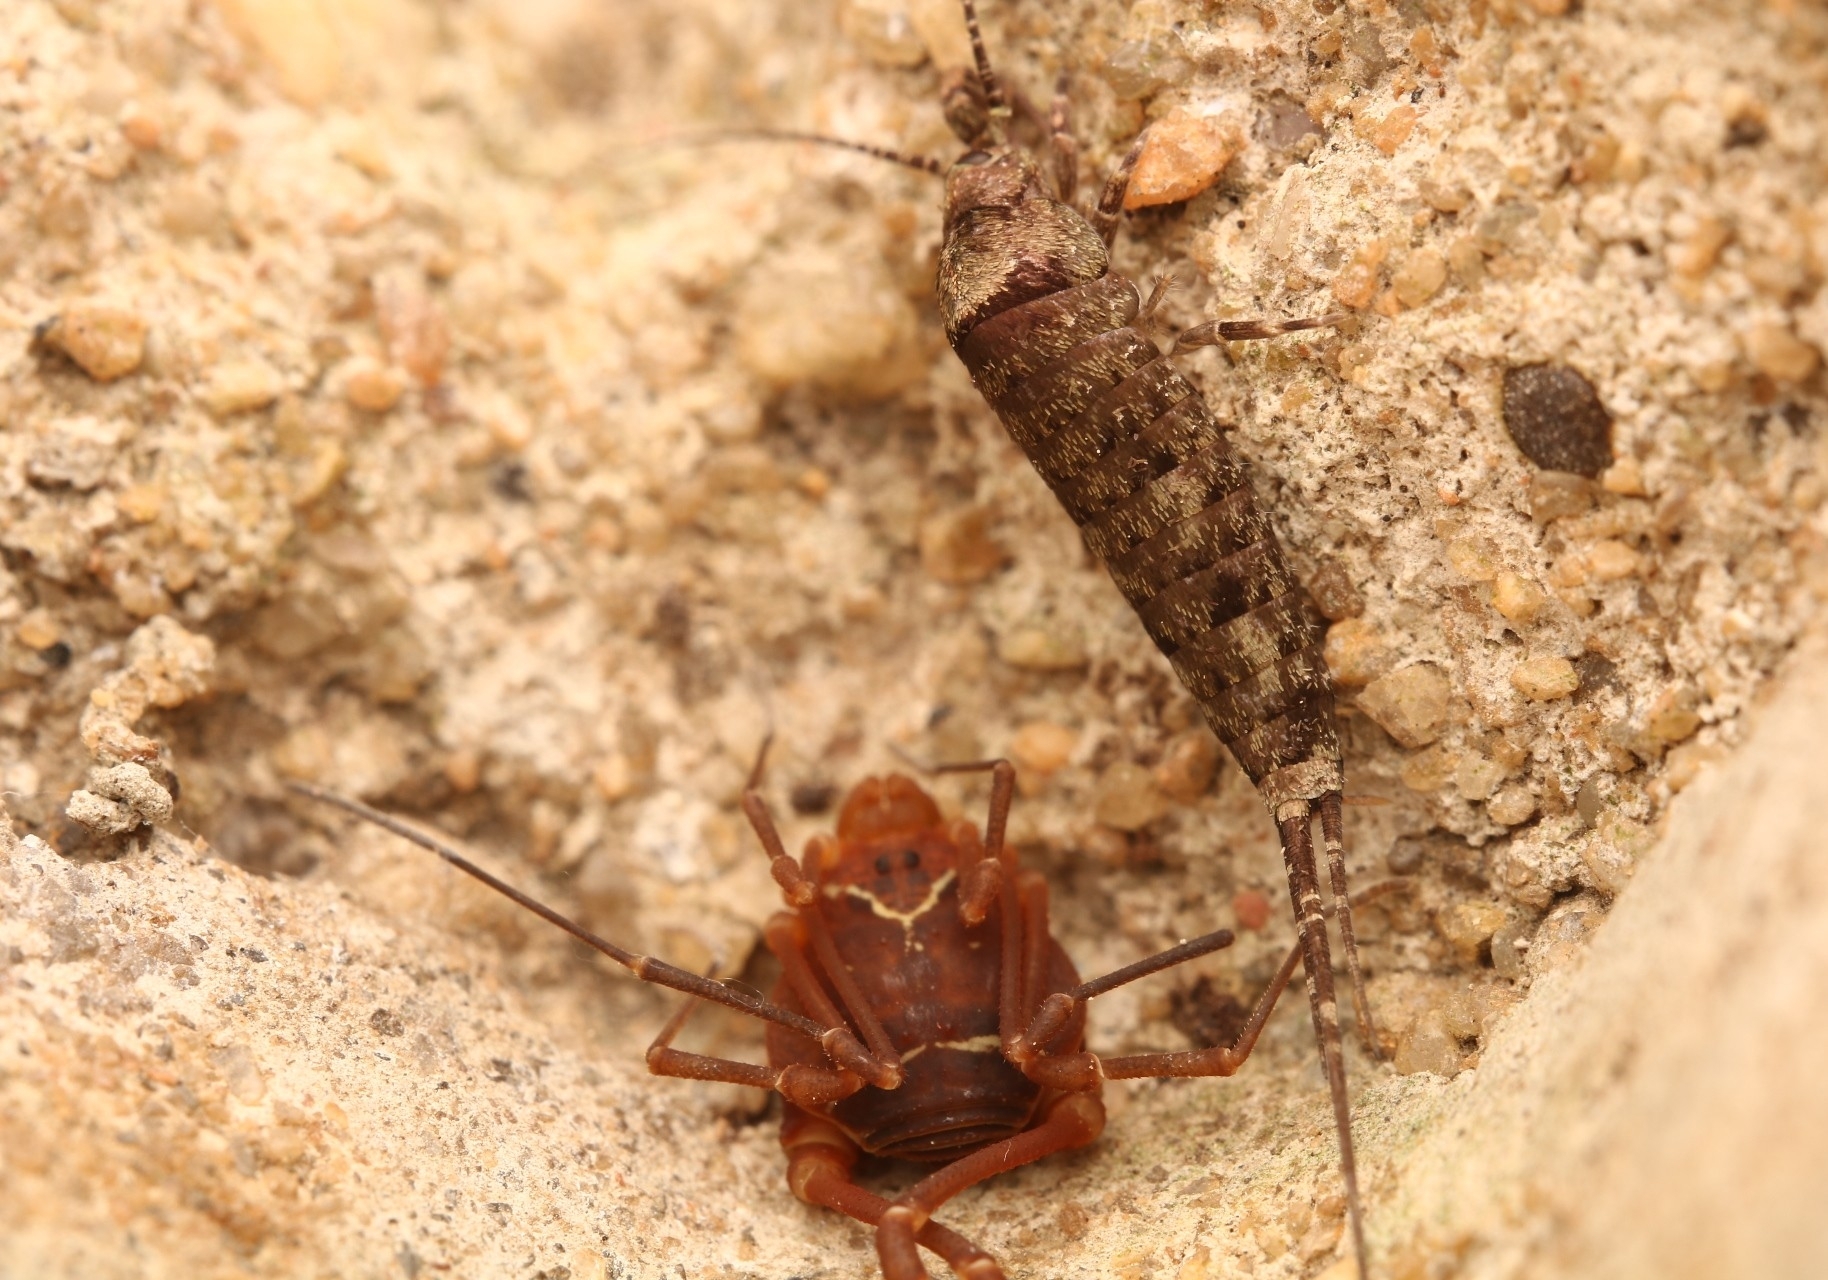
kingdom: Animalia
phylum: Arthropoda
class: Insecta
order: Archaeognatha
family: Machilidae
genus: Trigoniophthalmus
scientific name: Trigoniophthalmus alternatus
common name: Jumping bristletail
